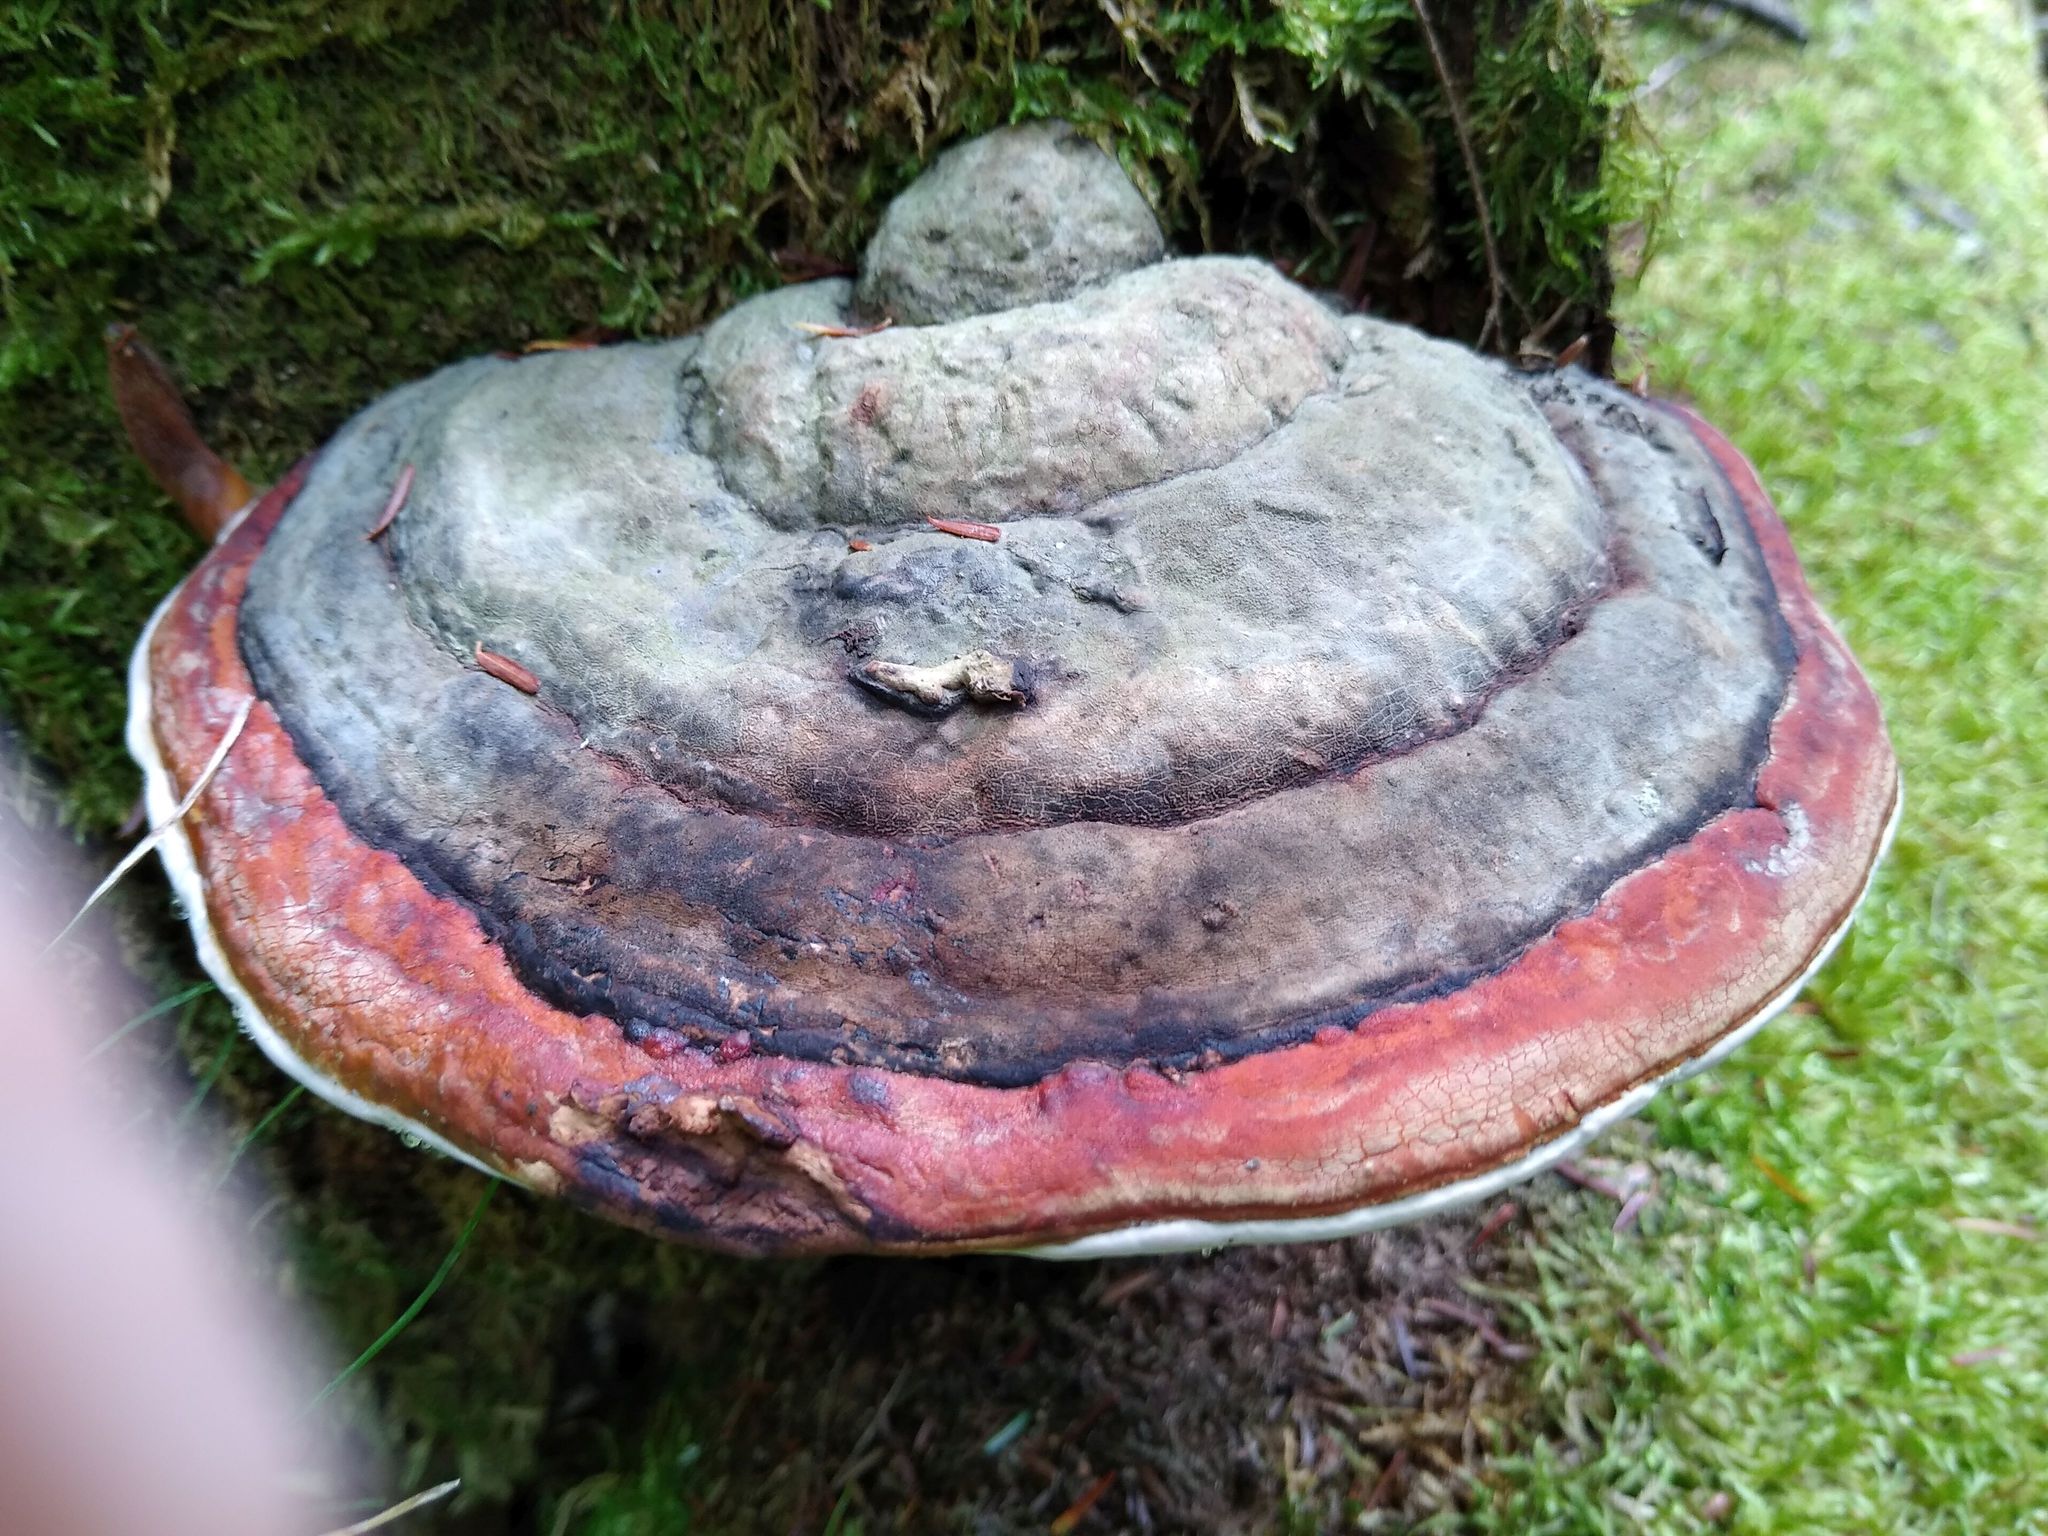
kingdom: Fungi
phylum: Basidiomycota
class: Agaricomycetes
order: Polyporales
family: Fomitopsidaceae
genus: Fomitopsis
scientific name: Fomitopsis mounceae
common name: Northern red belt
